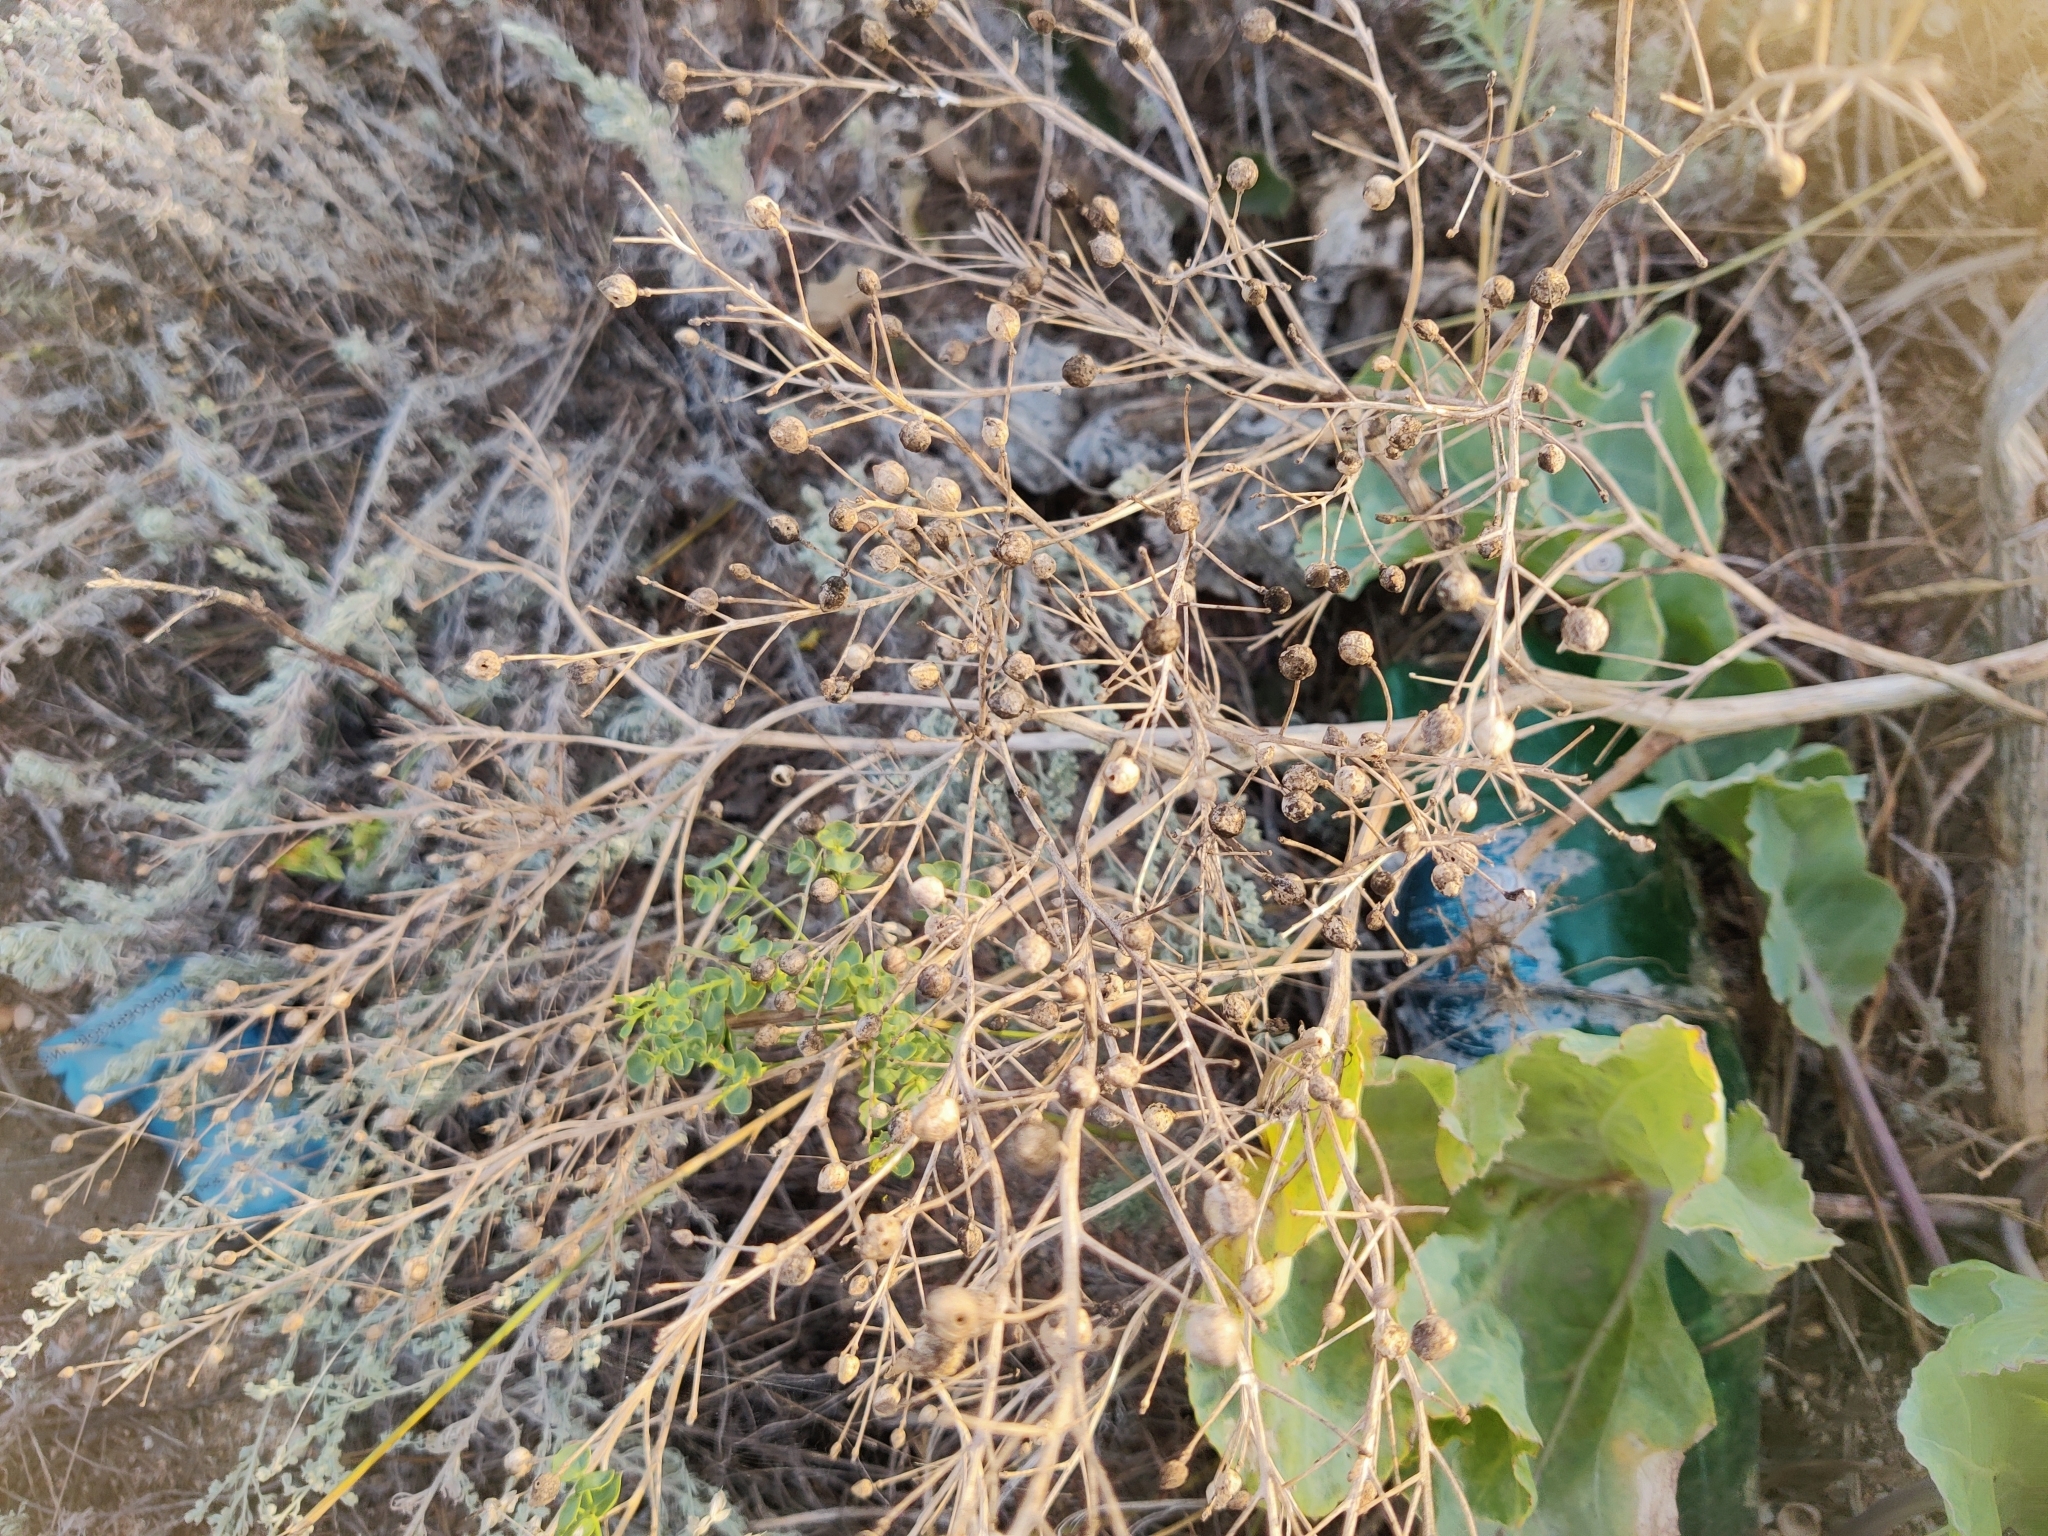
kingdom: Plantae
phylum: Tracheophyta
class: Magnoliopsida
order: Brassicales
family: Brassicaceae
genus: Crambe
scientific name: Crambe maritima
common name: Sea-kale
